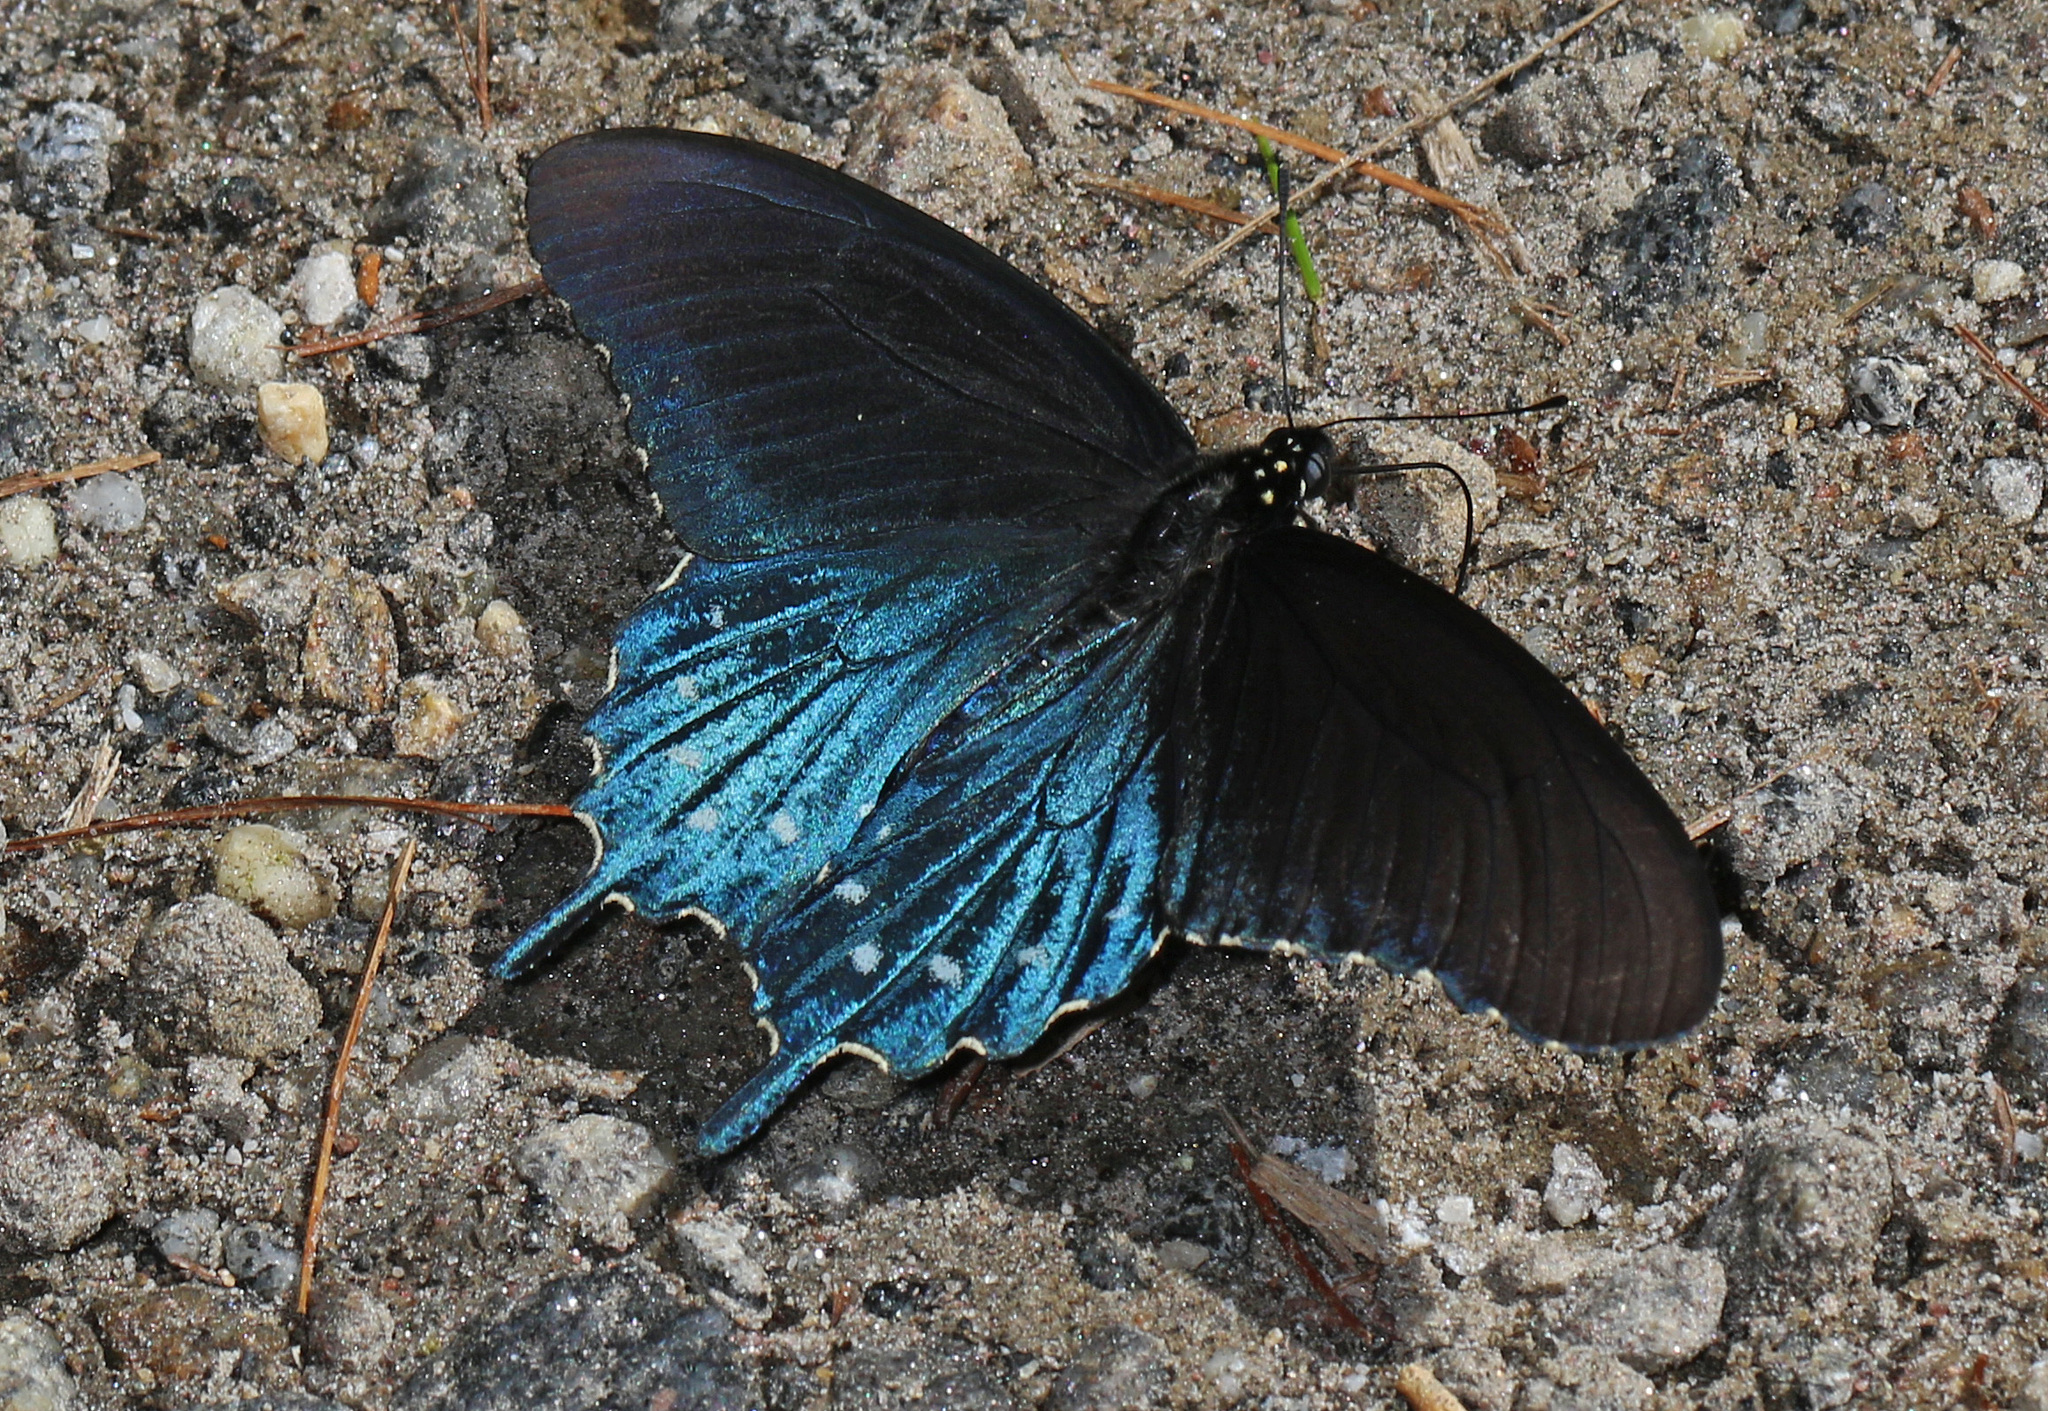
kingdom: Animalia
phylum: Arthropoda
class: Insecta
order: Lepidoptera
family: Papilionidae
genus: Battus
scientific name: Battus philenor
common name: Pipevine swallowtail
